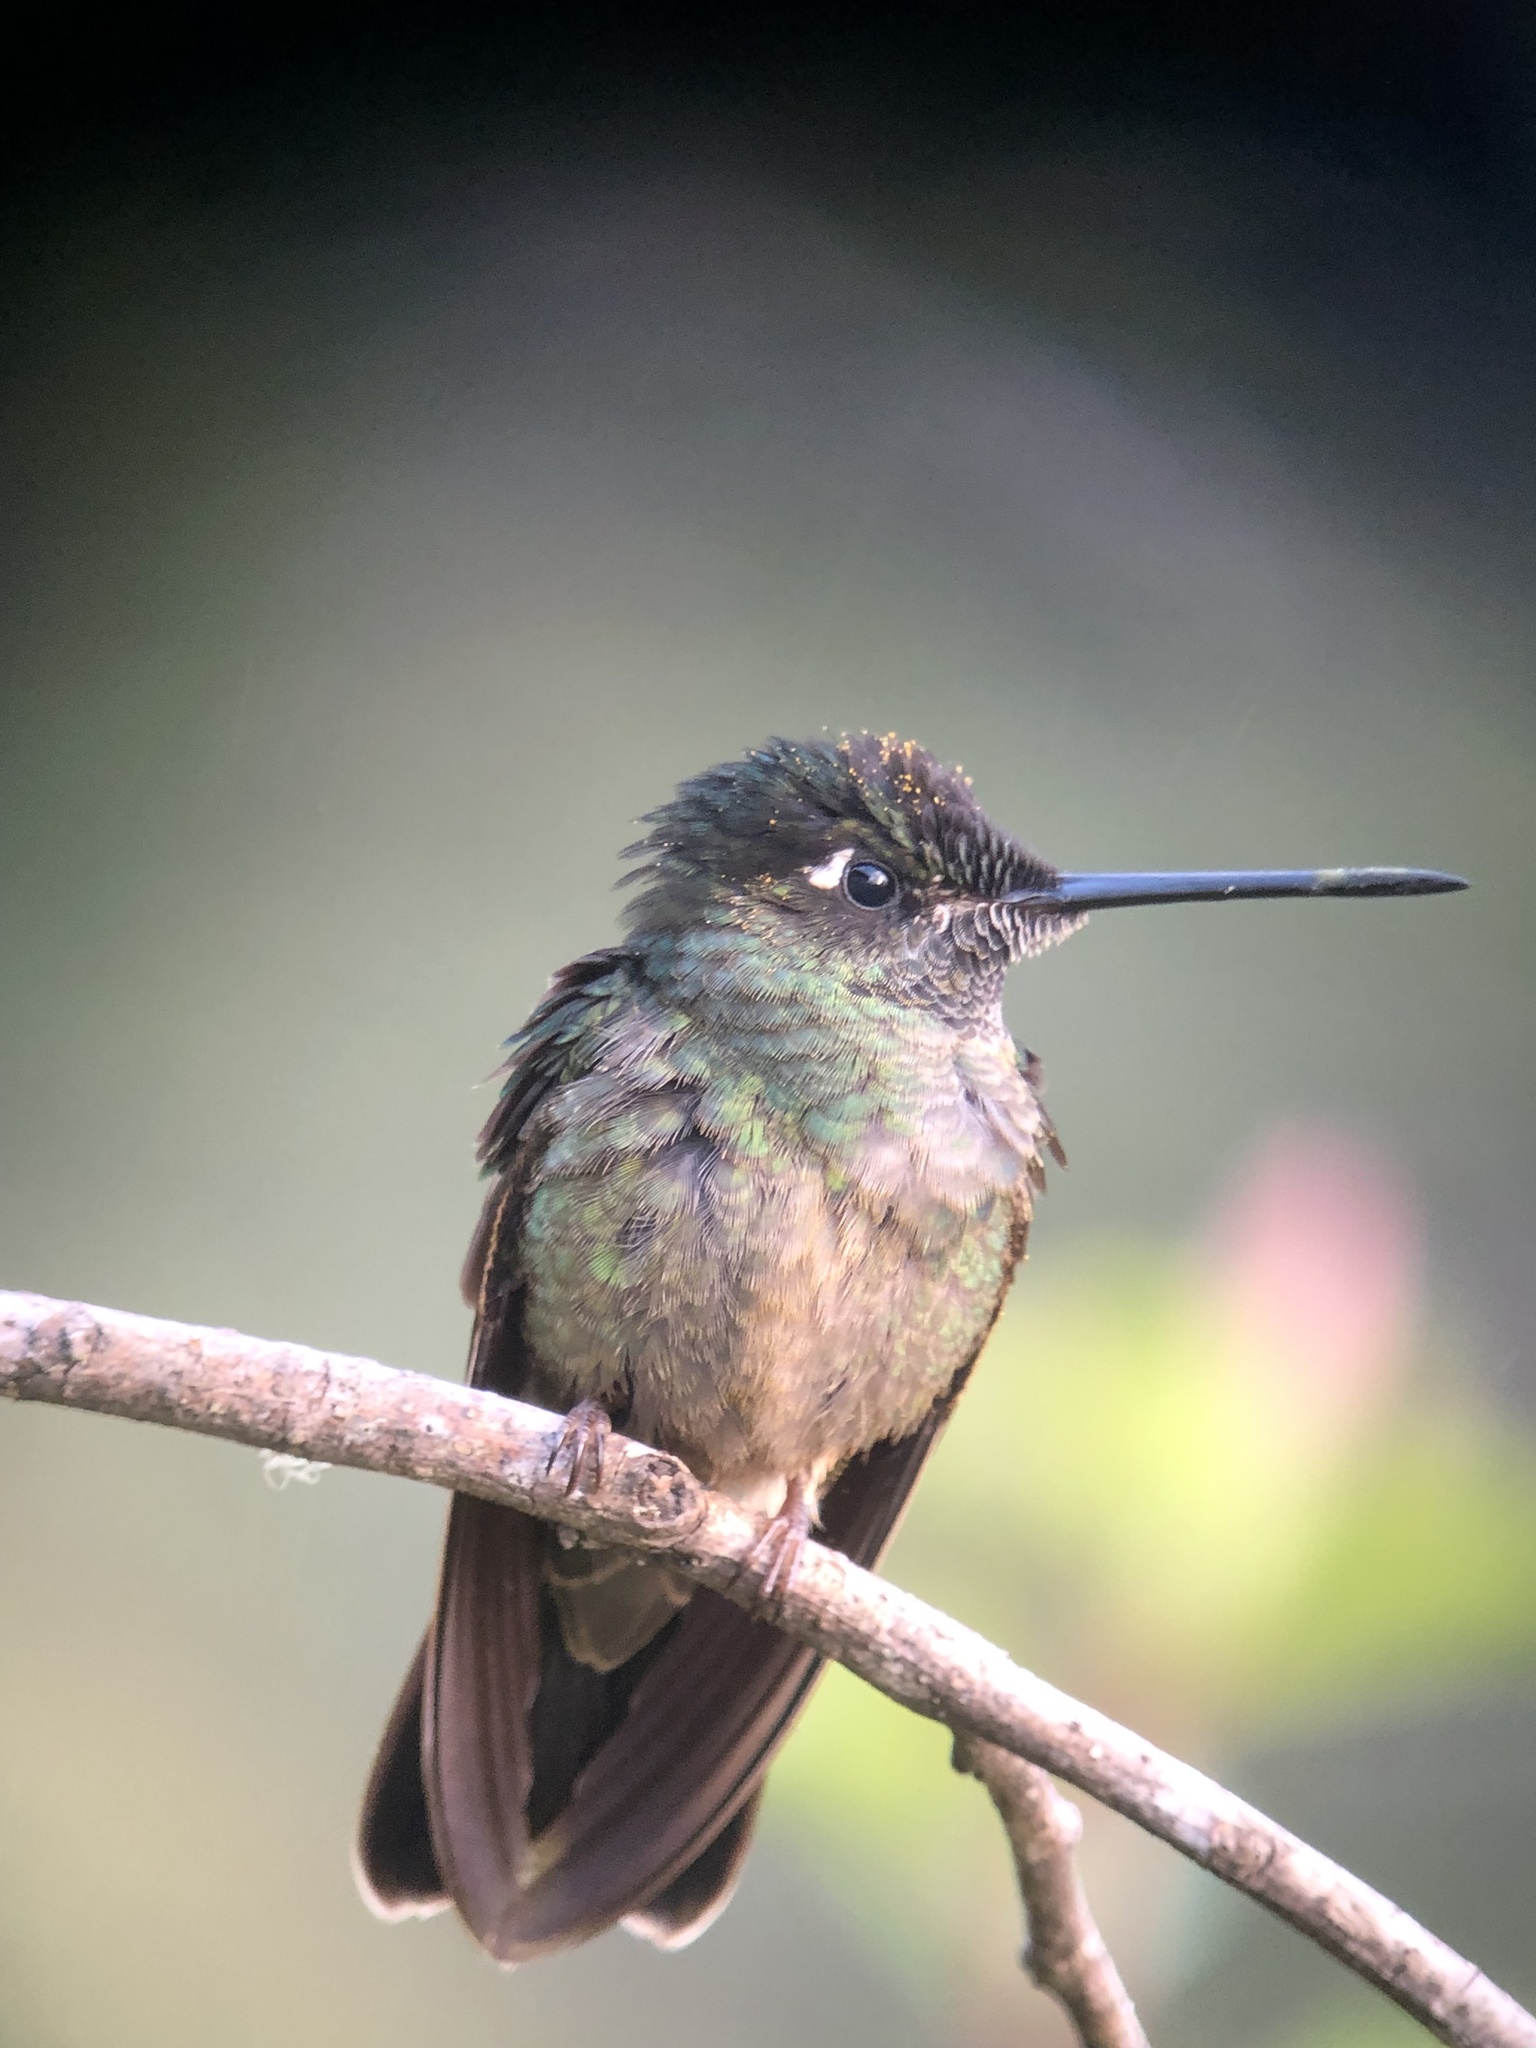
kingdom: Animalia
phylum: Chordata
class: Aves
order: Apodiformes
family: Trochilidae
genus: Eugenes
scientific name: Eugenes spectabilis
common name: Talamanca hummingbird
